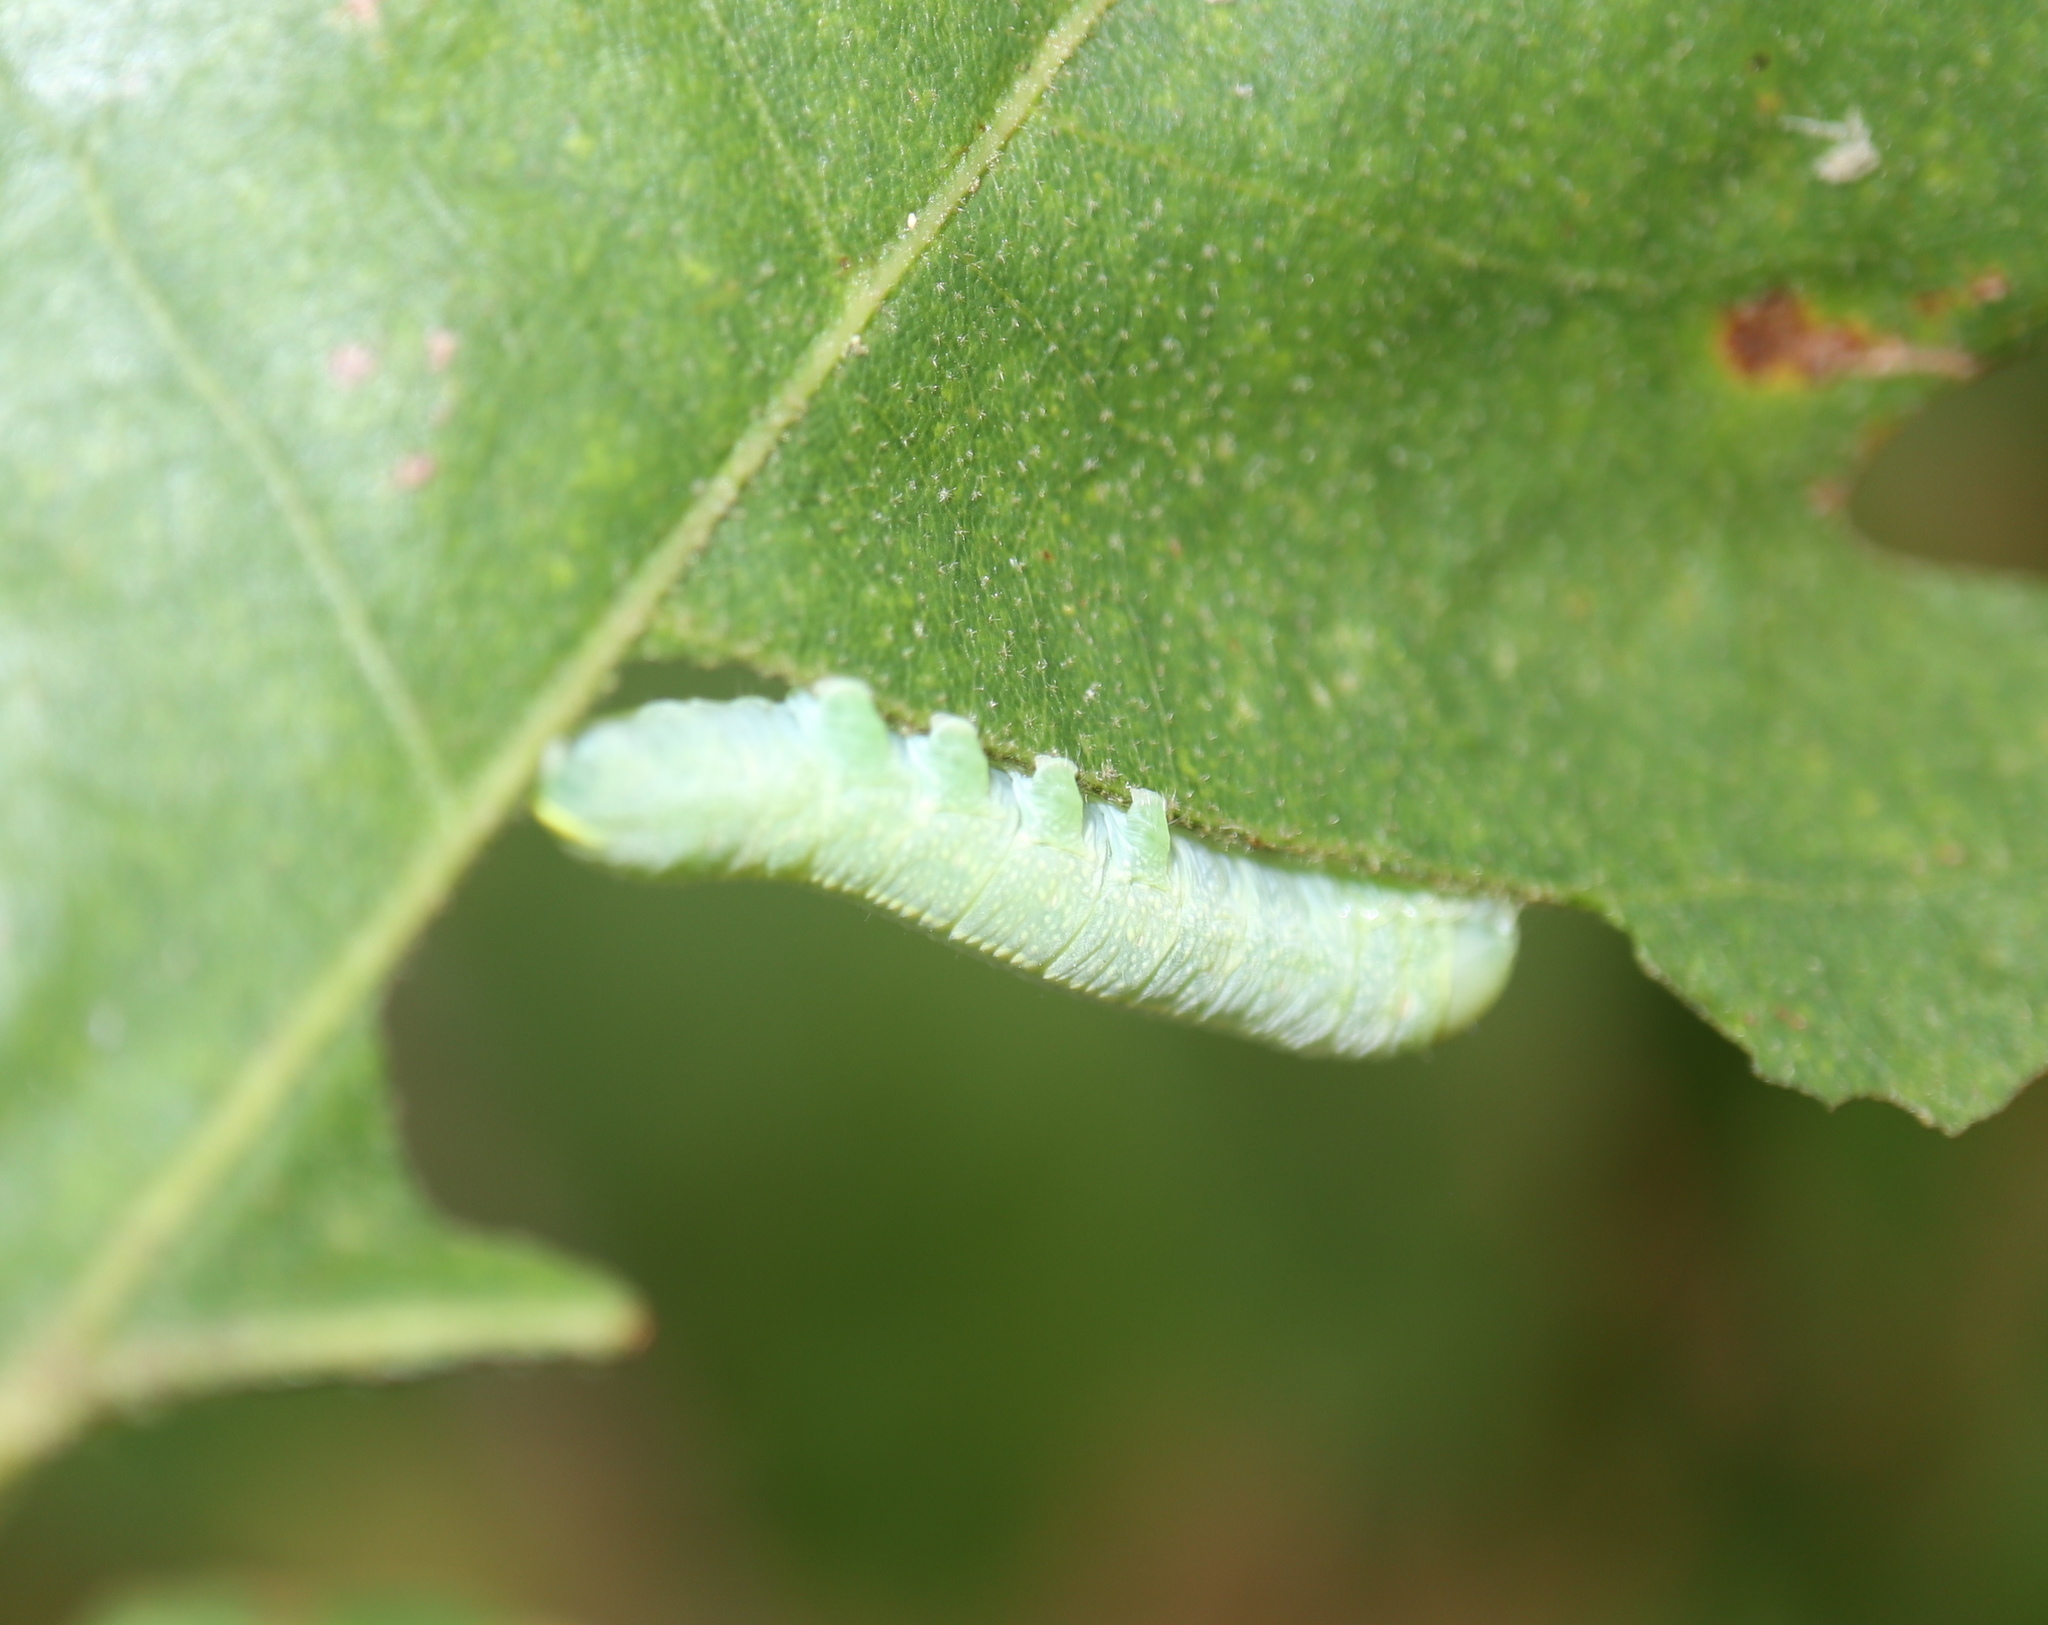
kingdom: Animalia
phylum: Arthropoda
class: Insecta
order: Lepidoptera
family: Notodontidae
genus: Nadata
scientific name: Nadata gibbosa
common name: White-dotted prominent
